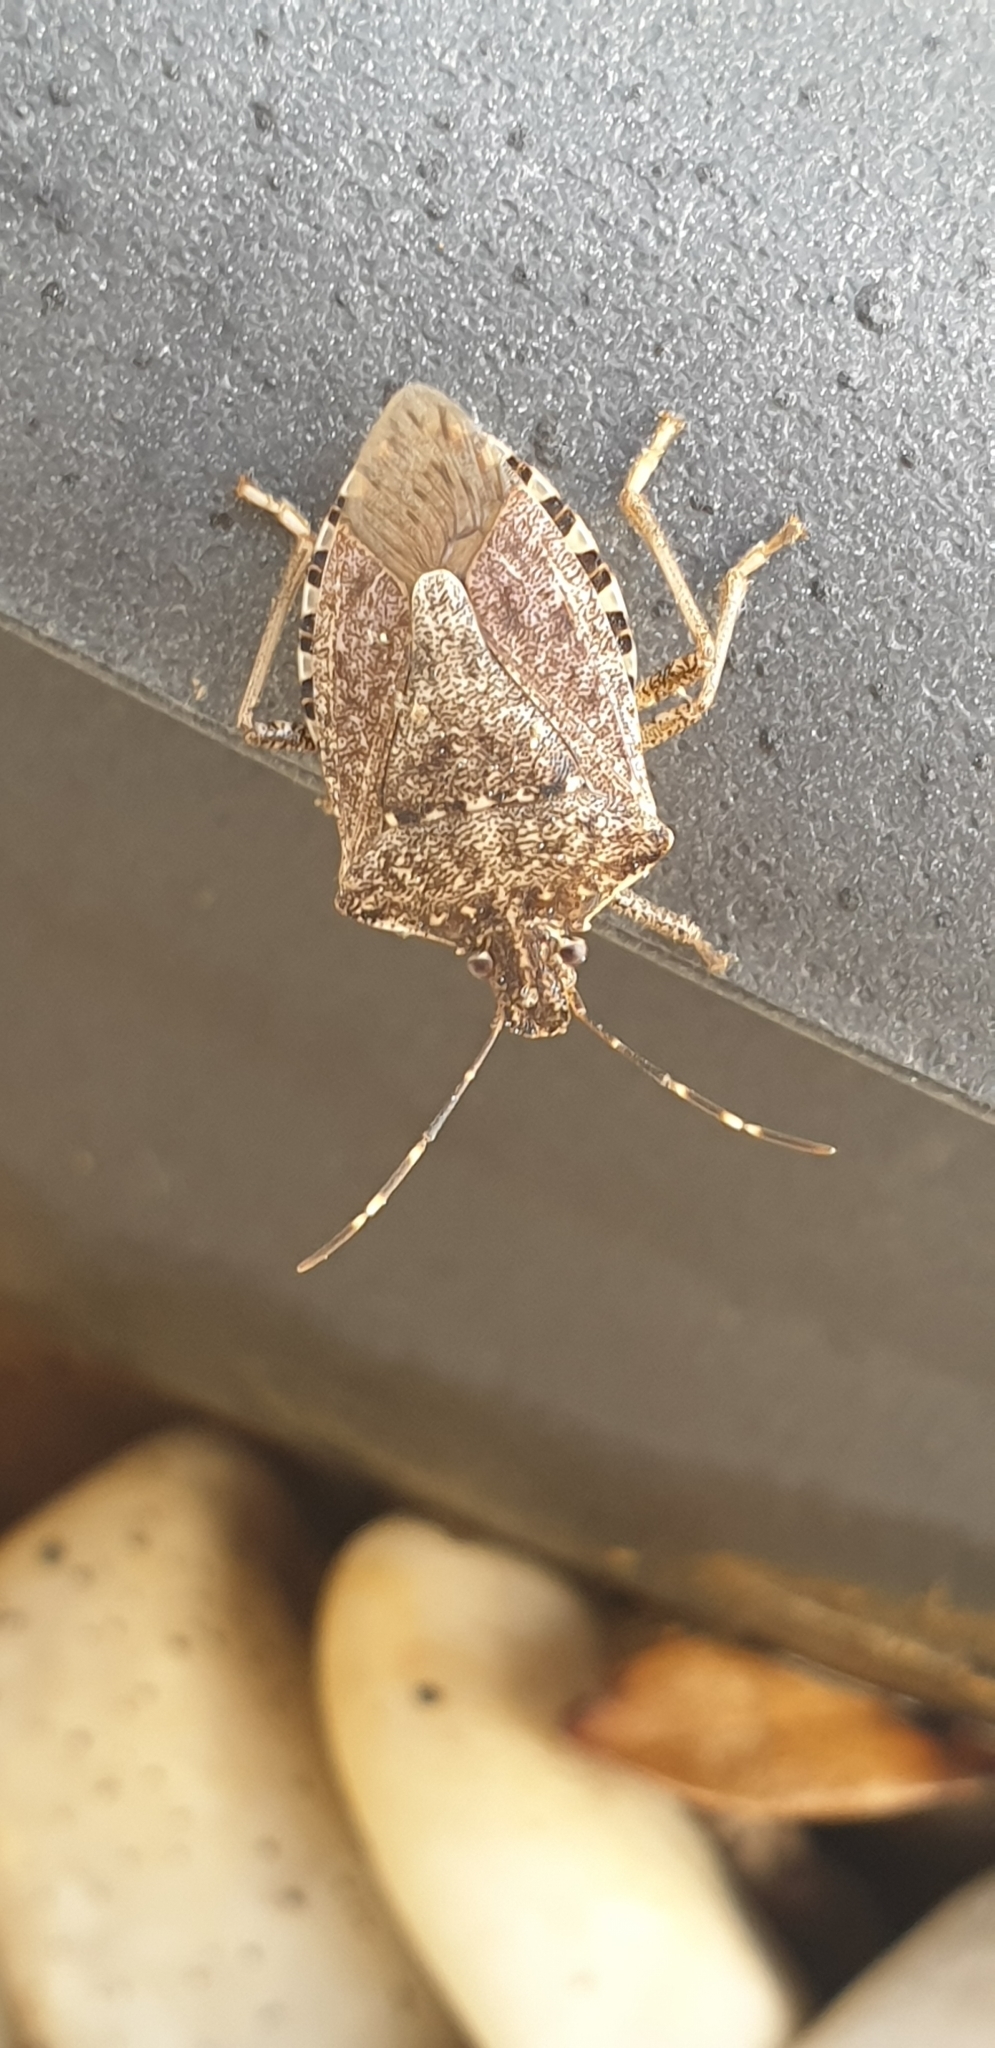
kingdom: Animalia
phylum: Arthropoda
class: Insecta
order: Hemiptera
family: Pentatomidae
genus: Halyomorpha
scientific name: Halyomorpha halys
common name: Brown marmorated stink bug
